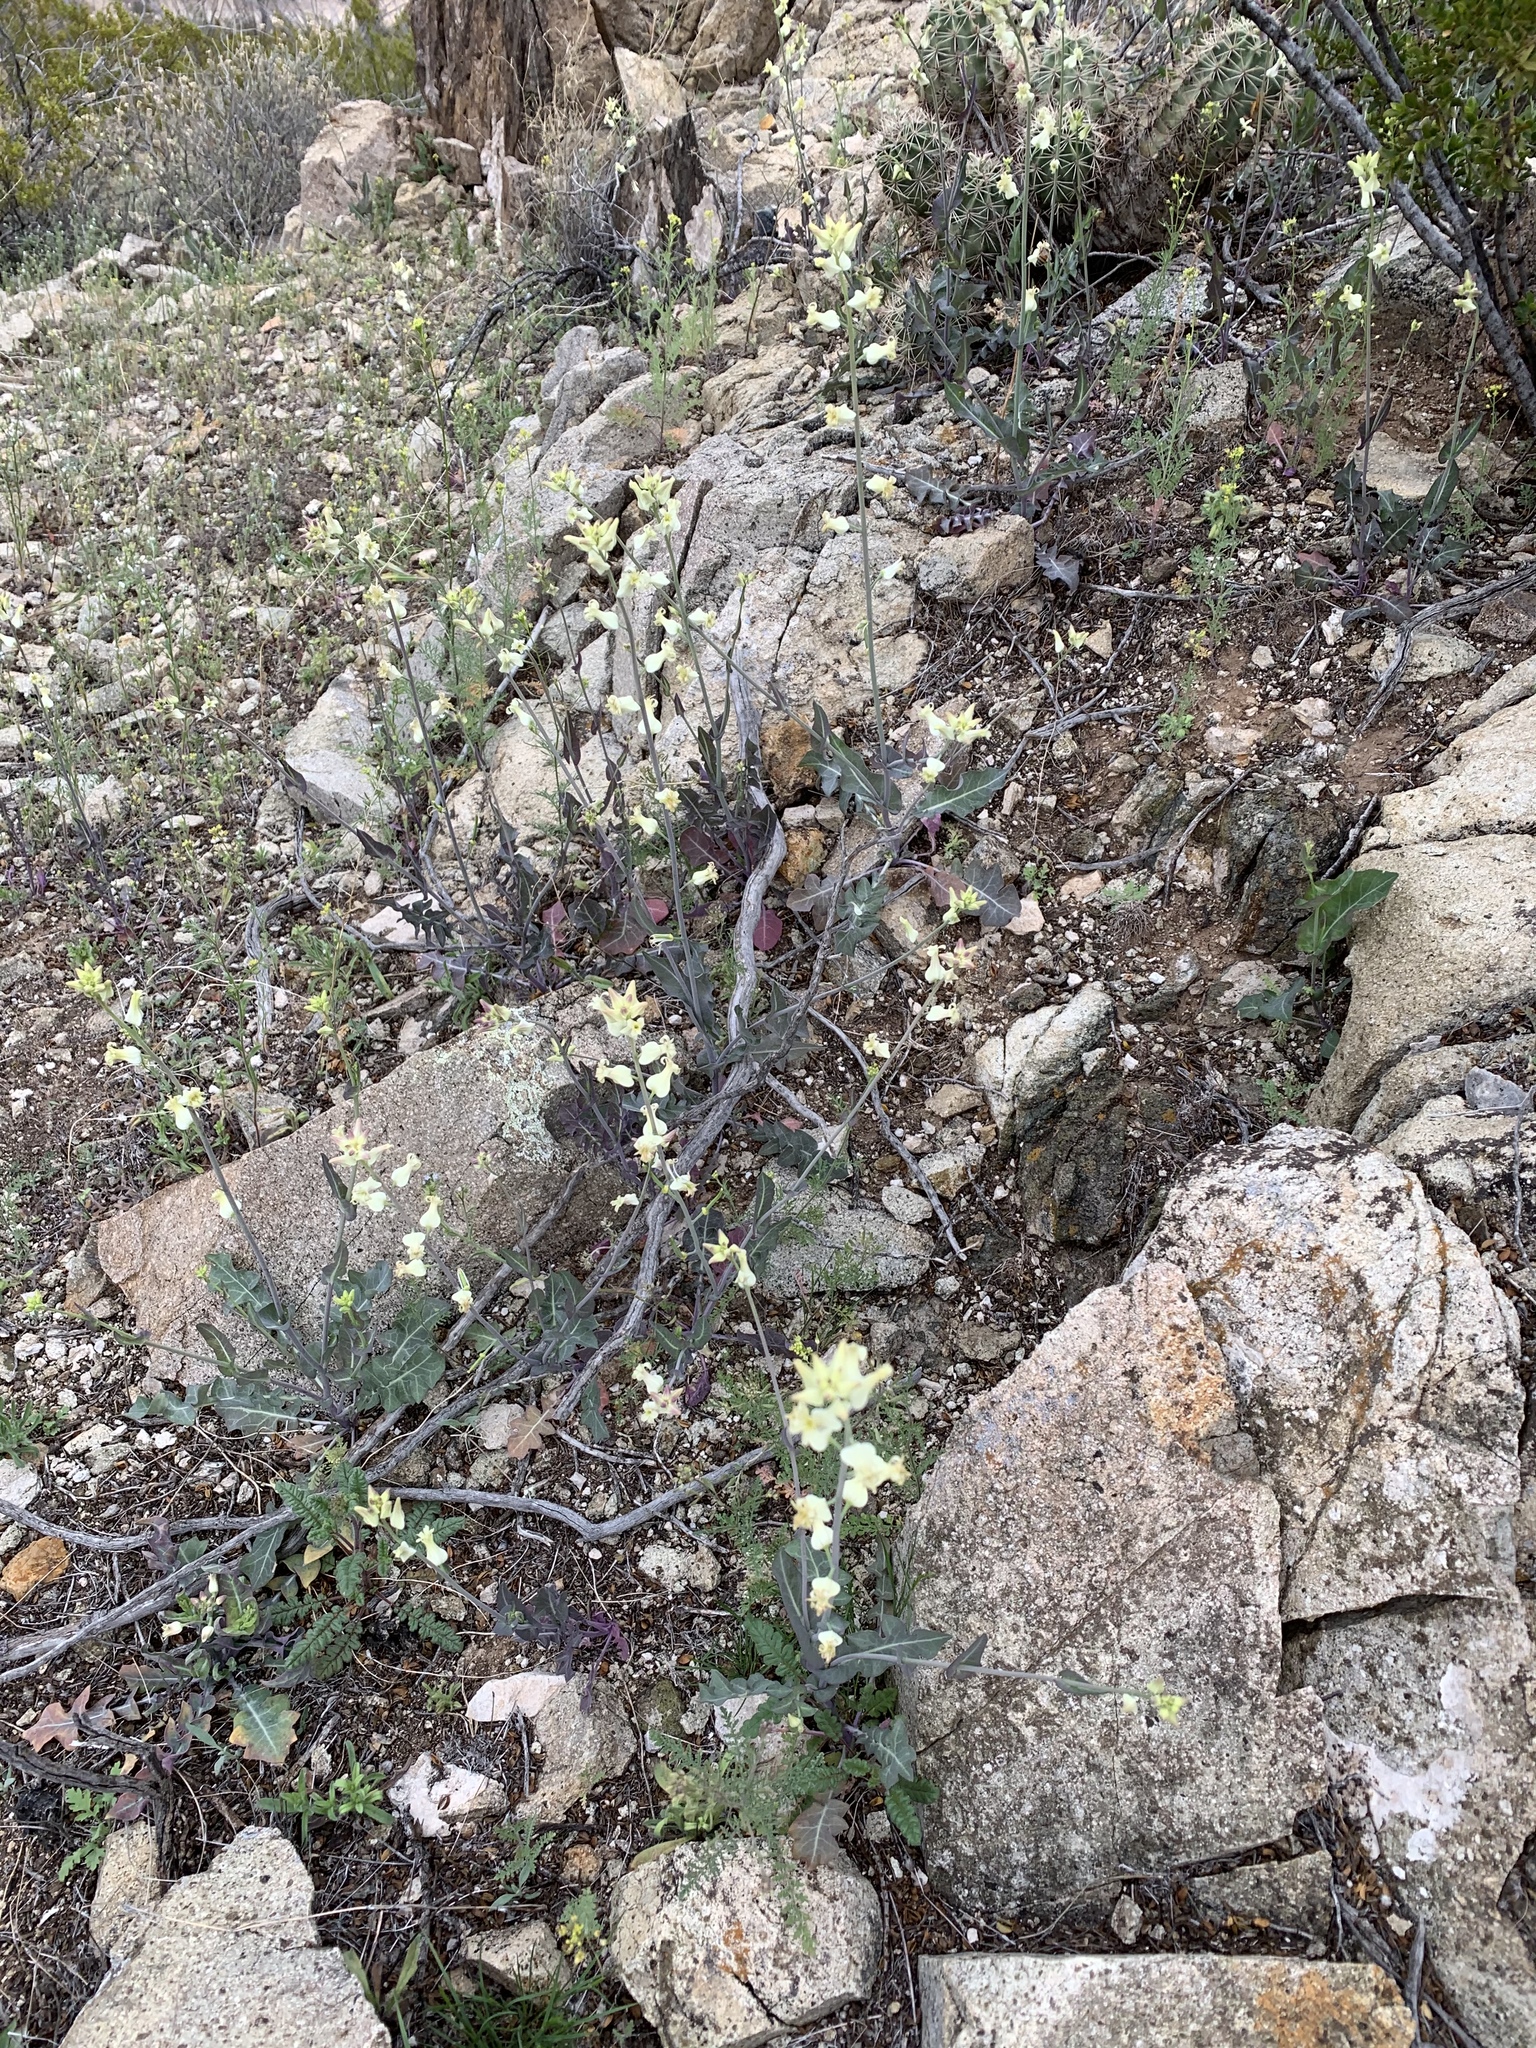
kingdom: Plantae
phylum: Tracheophyta
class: Magnoliopsida
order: Brassicales
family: Brassicaceae
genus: Streptanthus
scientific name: Streptanthus carinatus
